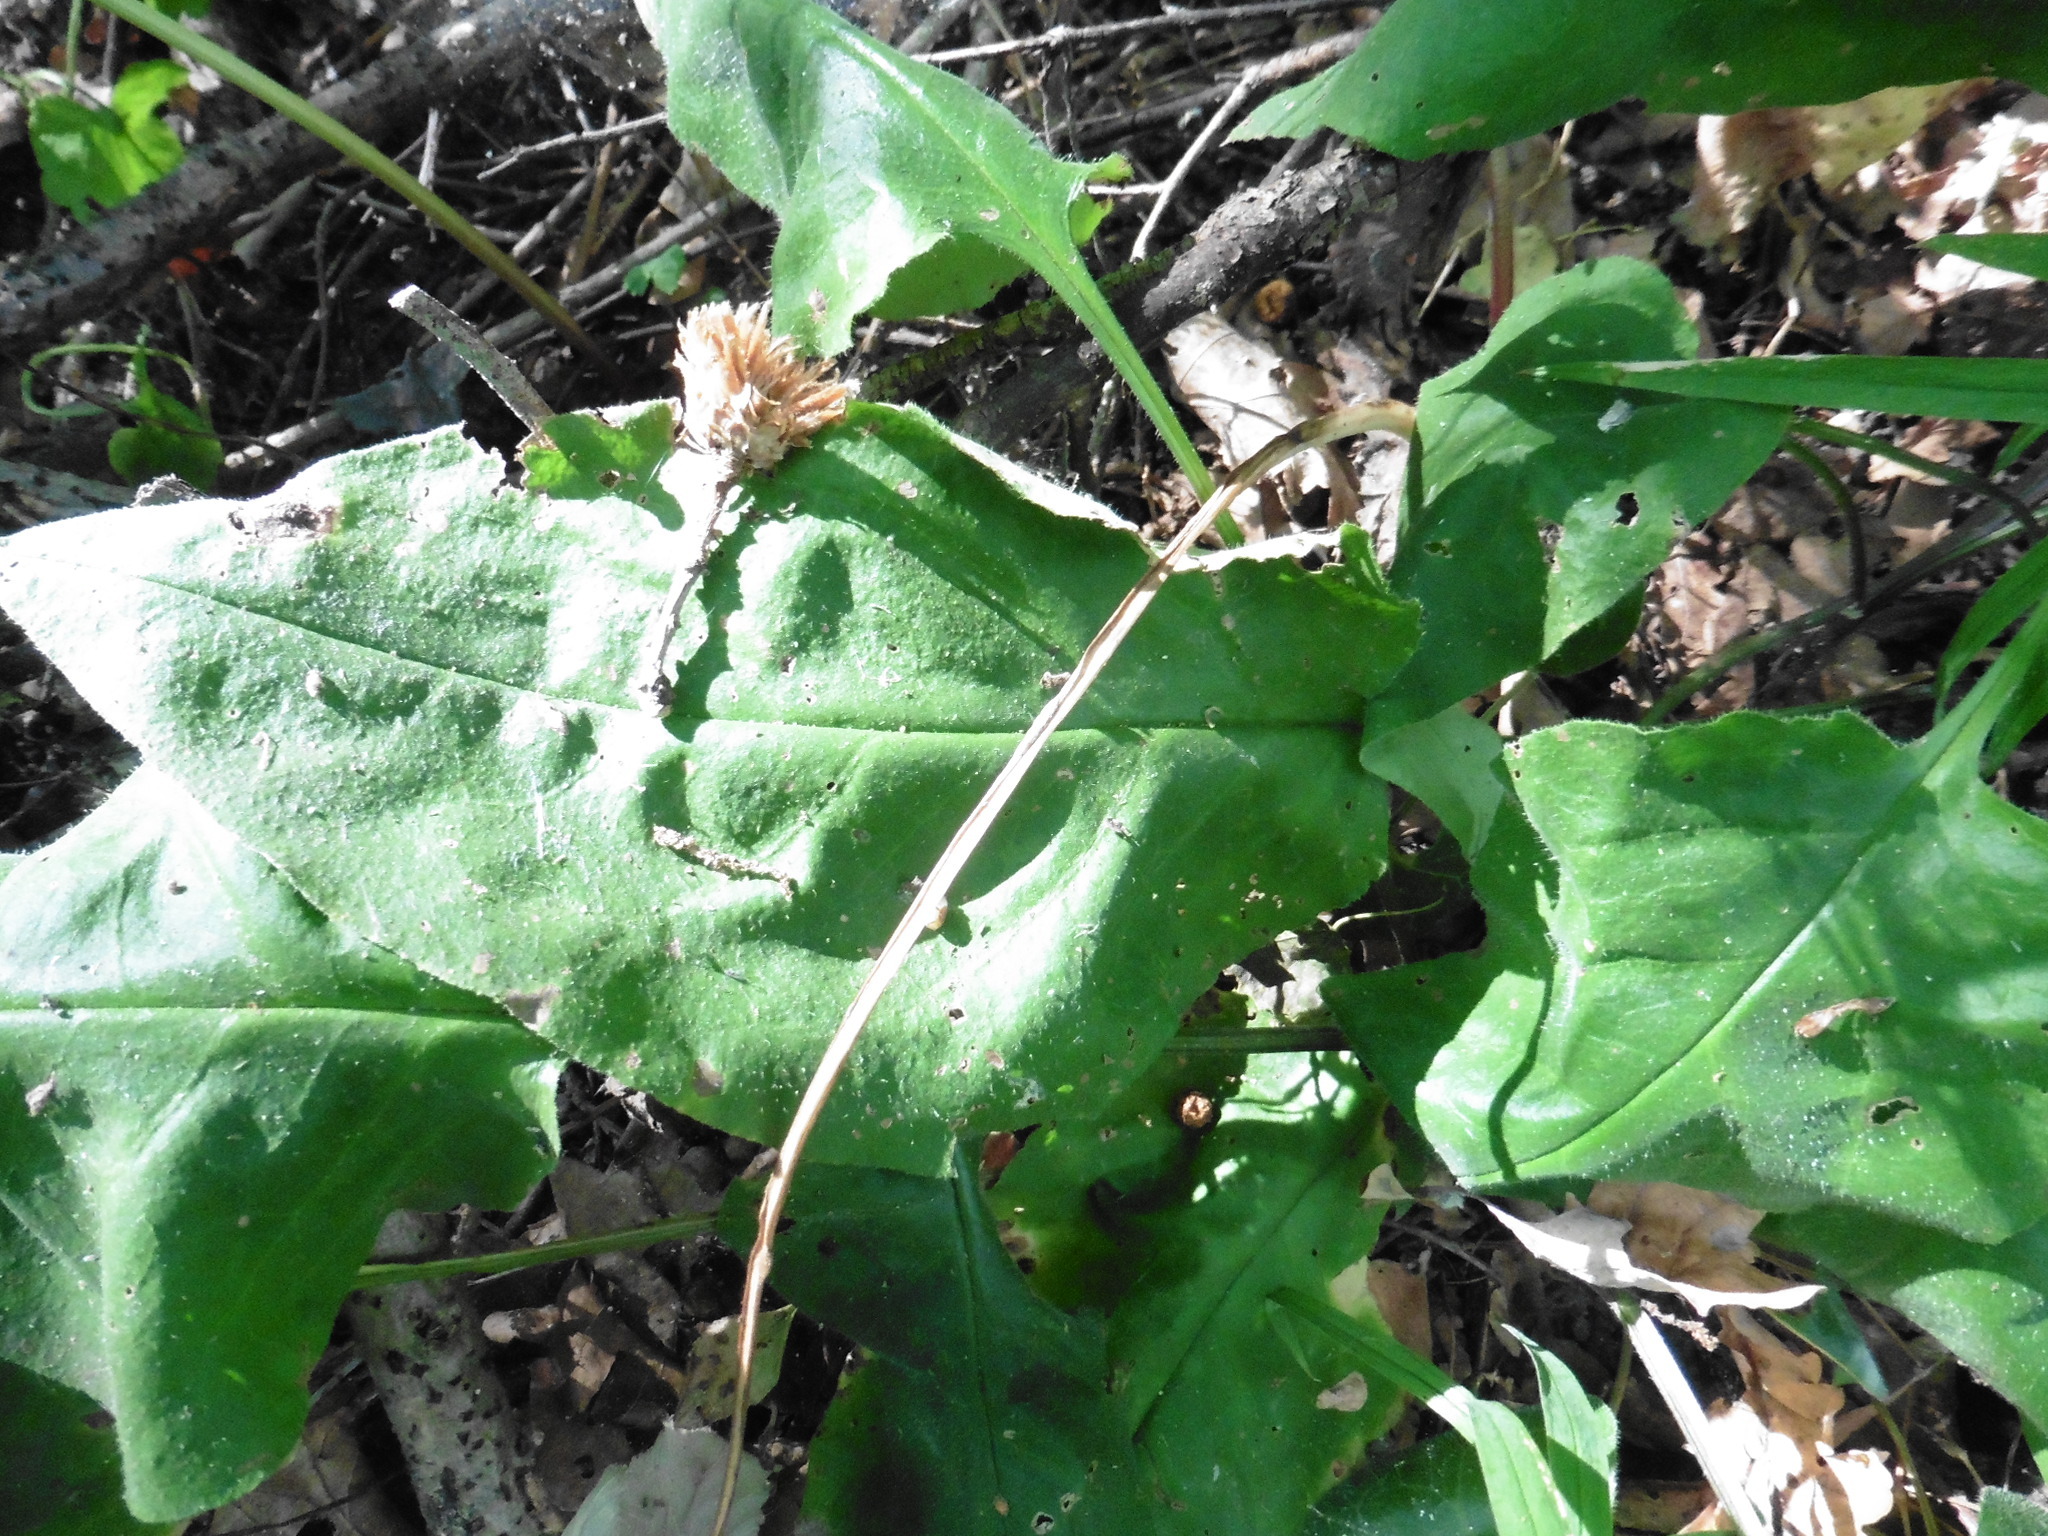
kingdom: Plantae
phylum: Tracheophyta
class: Magnoliopsida
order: Boraginales
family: Boraginaceae
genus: Pulmonaria
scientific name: Pulmonaria obscura
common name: Suffolk lungwort
